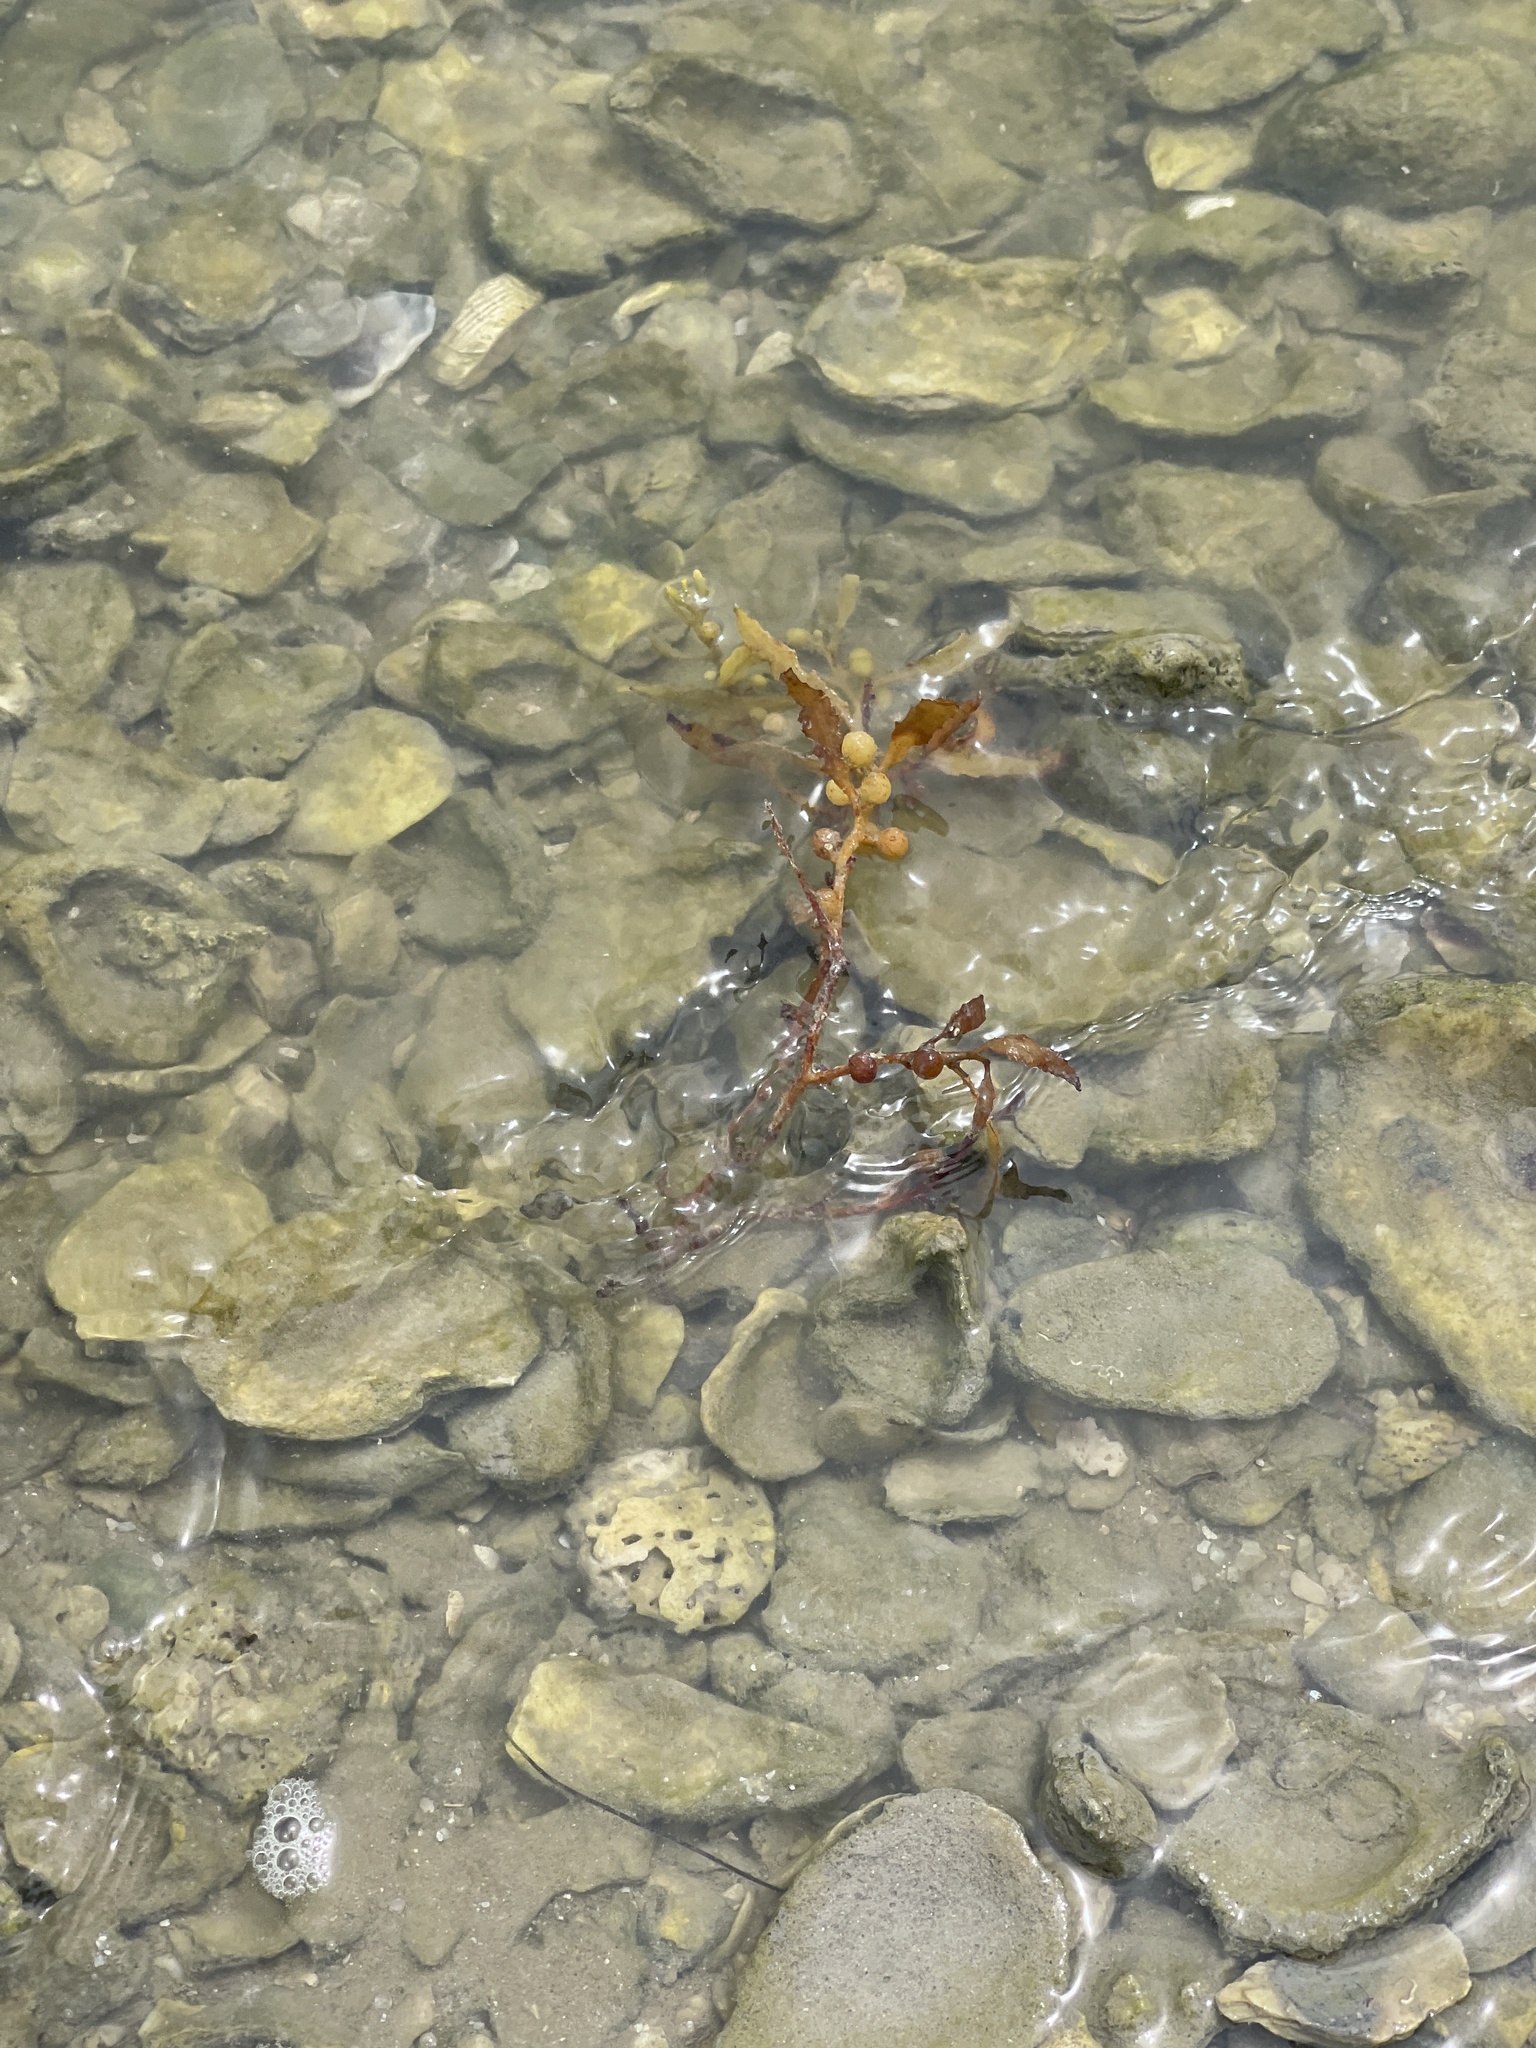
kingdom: Chromista
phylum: Ochrophyta
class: Phaeophyceae
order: Fucales
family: Sargassaceae
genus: Sargassum
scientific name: Sargassum fluitans
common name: Sargassum seaweed
